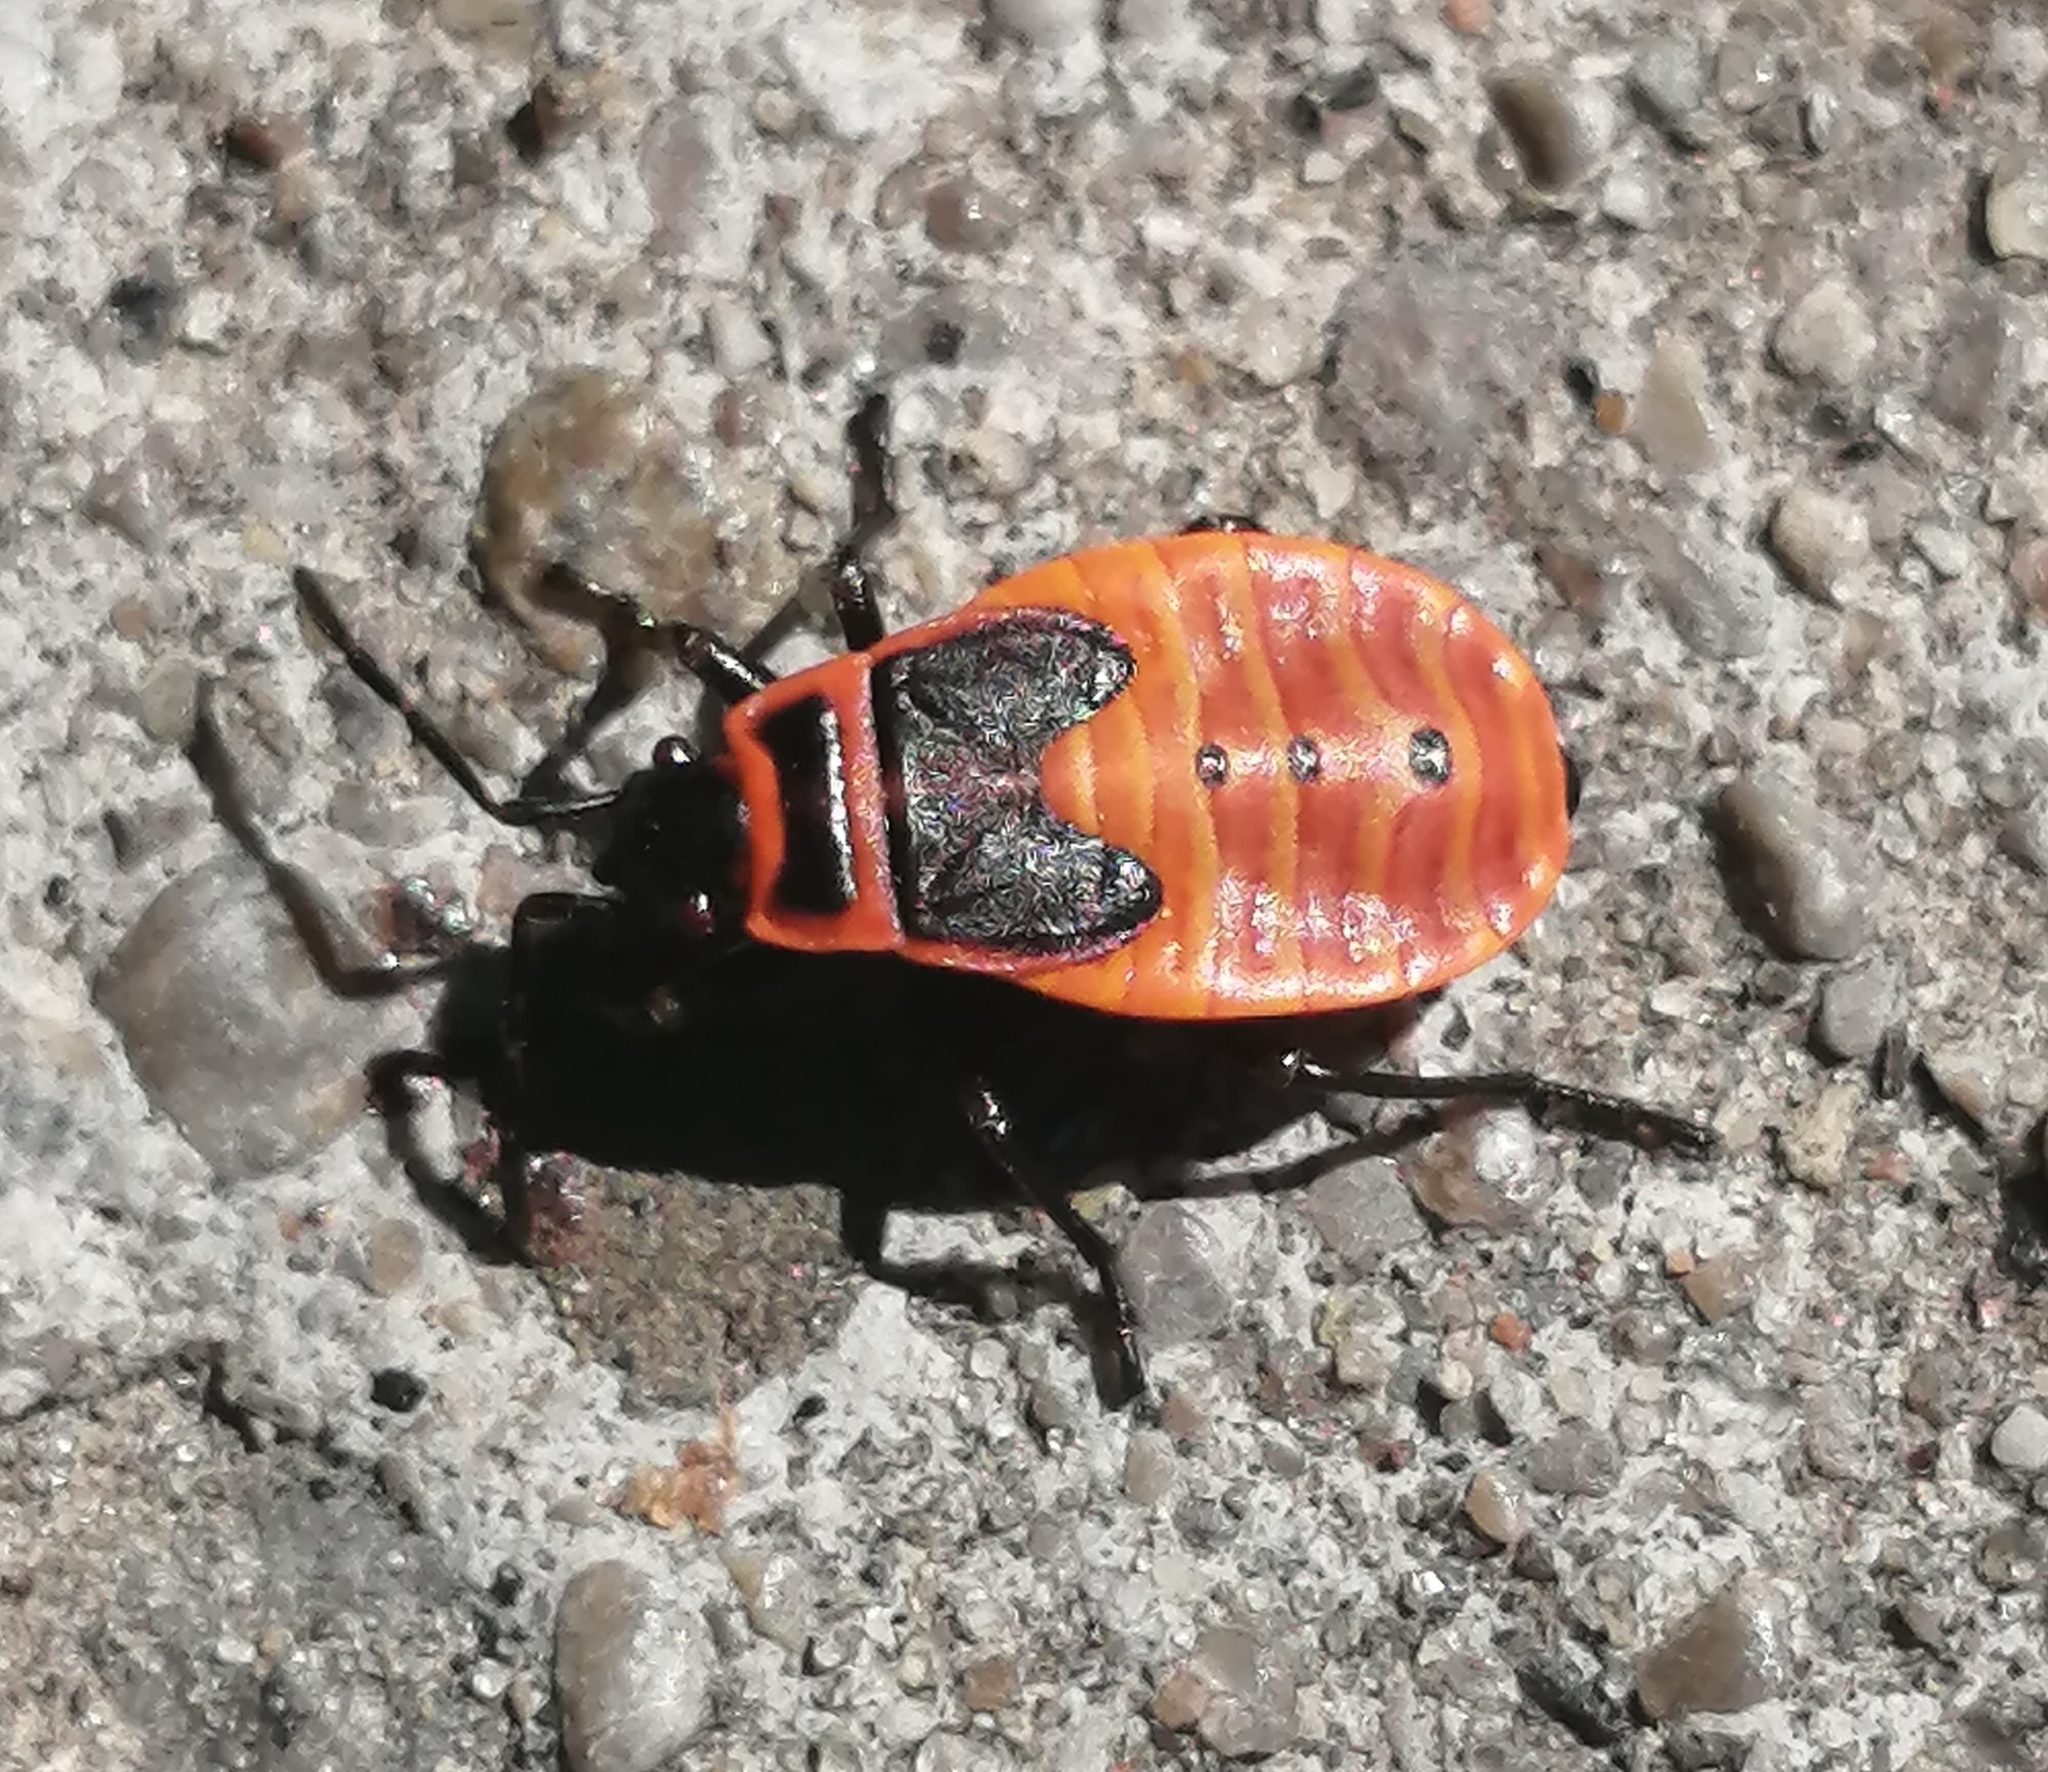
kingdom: Animalia
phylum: Arthropoda
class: Insecta
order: Hemiptera
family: Pyrrhocoridae
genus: Pyrrhocoris
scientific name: Pyrrhocoris apterus
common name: Firebug
